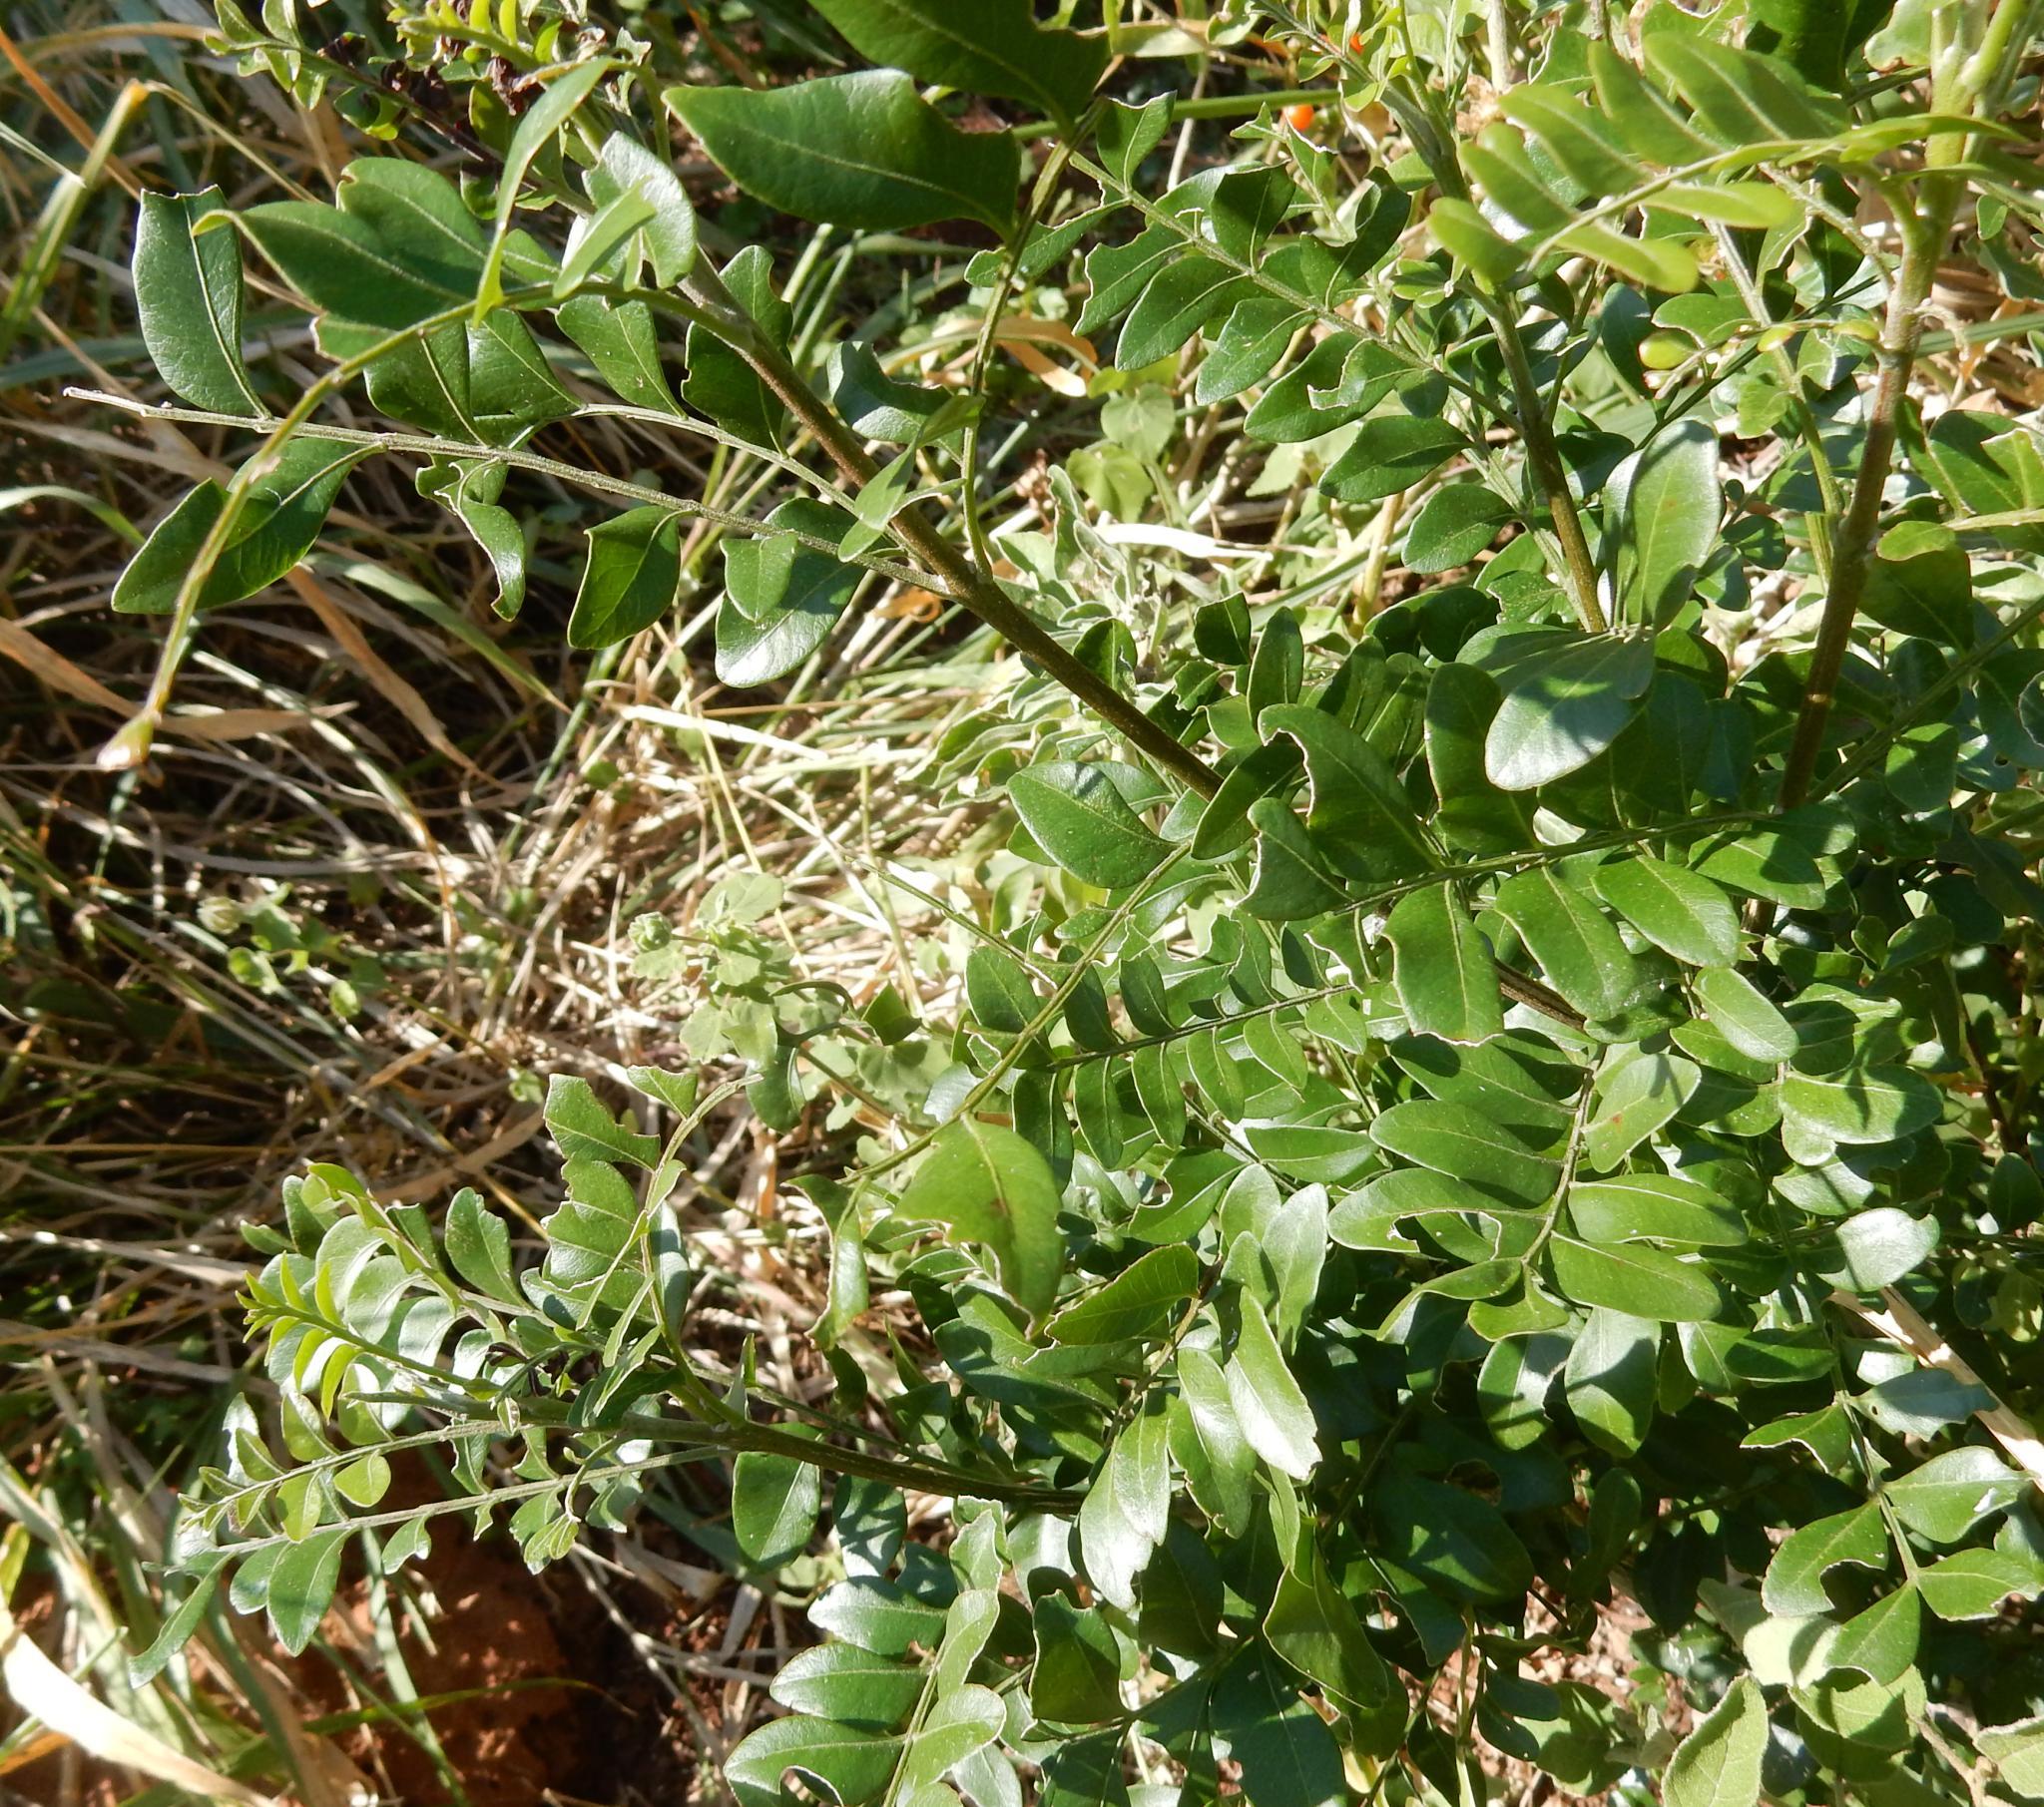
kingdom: Plantae
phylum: Tracheophyta
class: Magnoliopsida
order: Sapindales
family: Rutaceae
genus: Ptaeroxylon
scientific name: Ptaeroxylon obliquum
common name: Sneezewood
